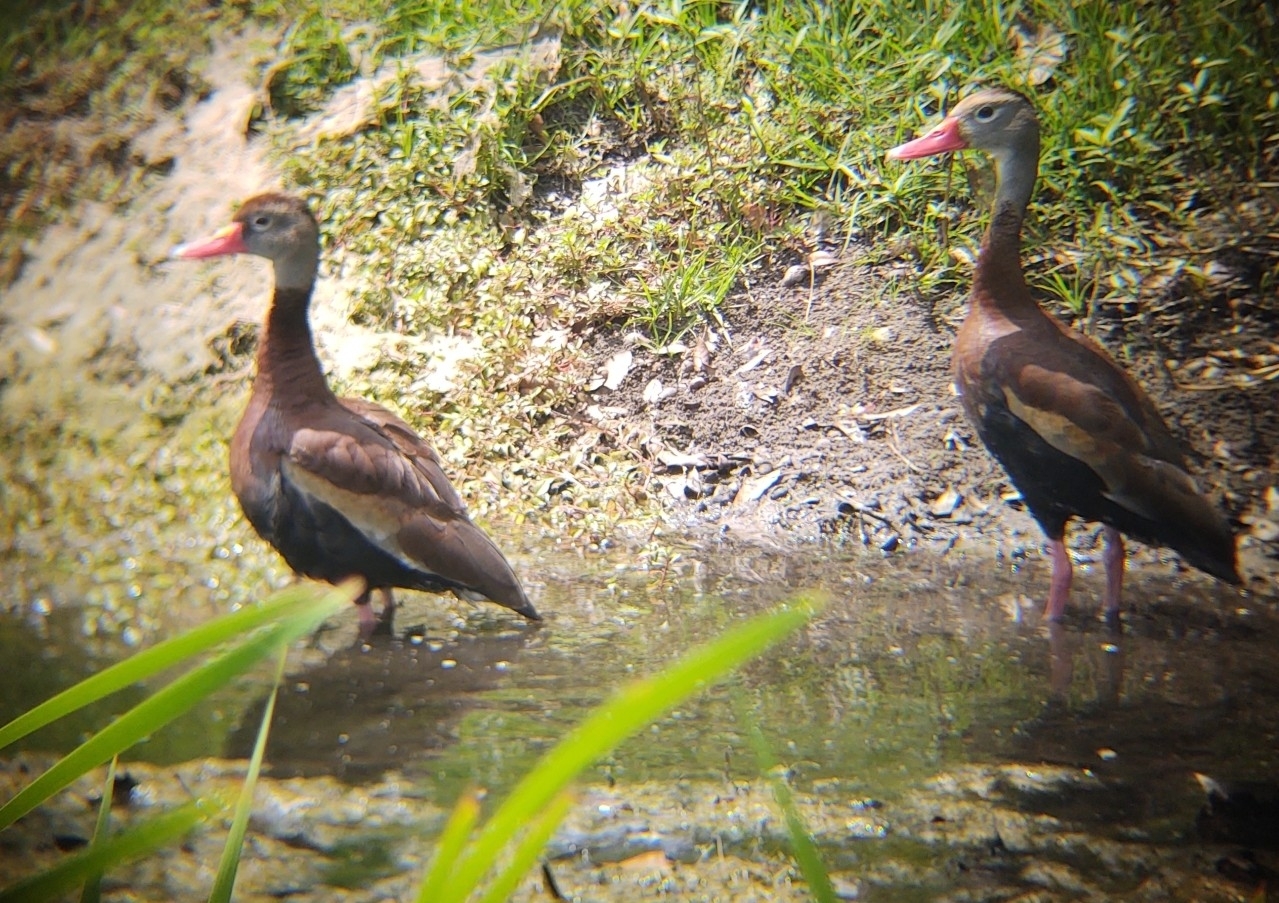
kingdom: Animalia
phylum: Chordata
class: Aves
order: Anseriformes
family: Anatidae
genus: Dendrocygna
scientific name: Dendrocygna autumnalis
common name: Black-bellied whistling duck
